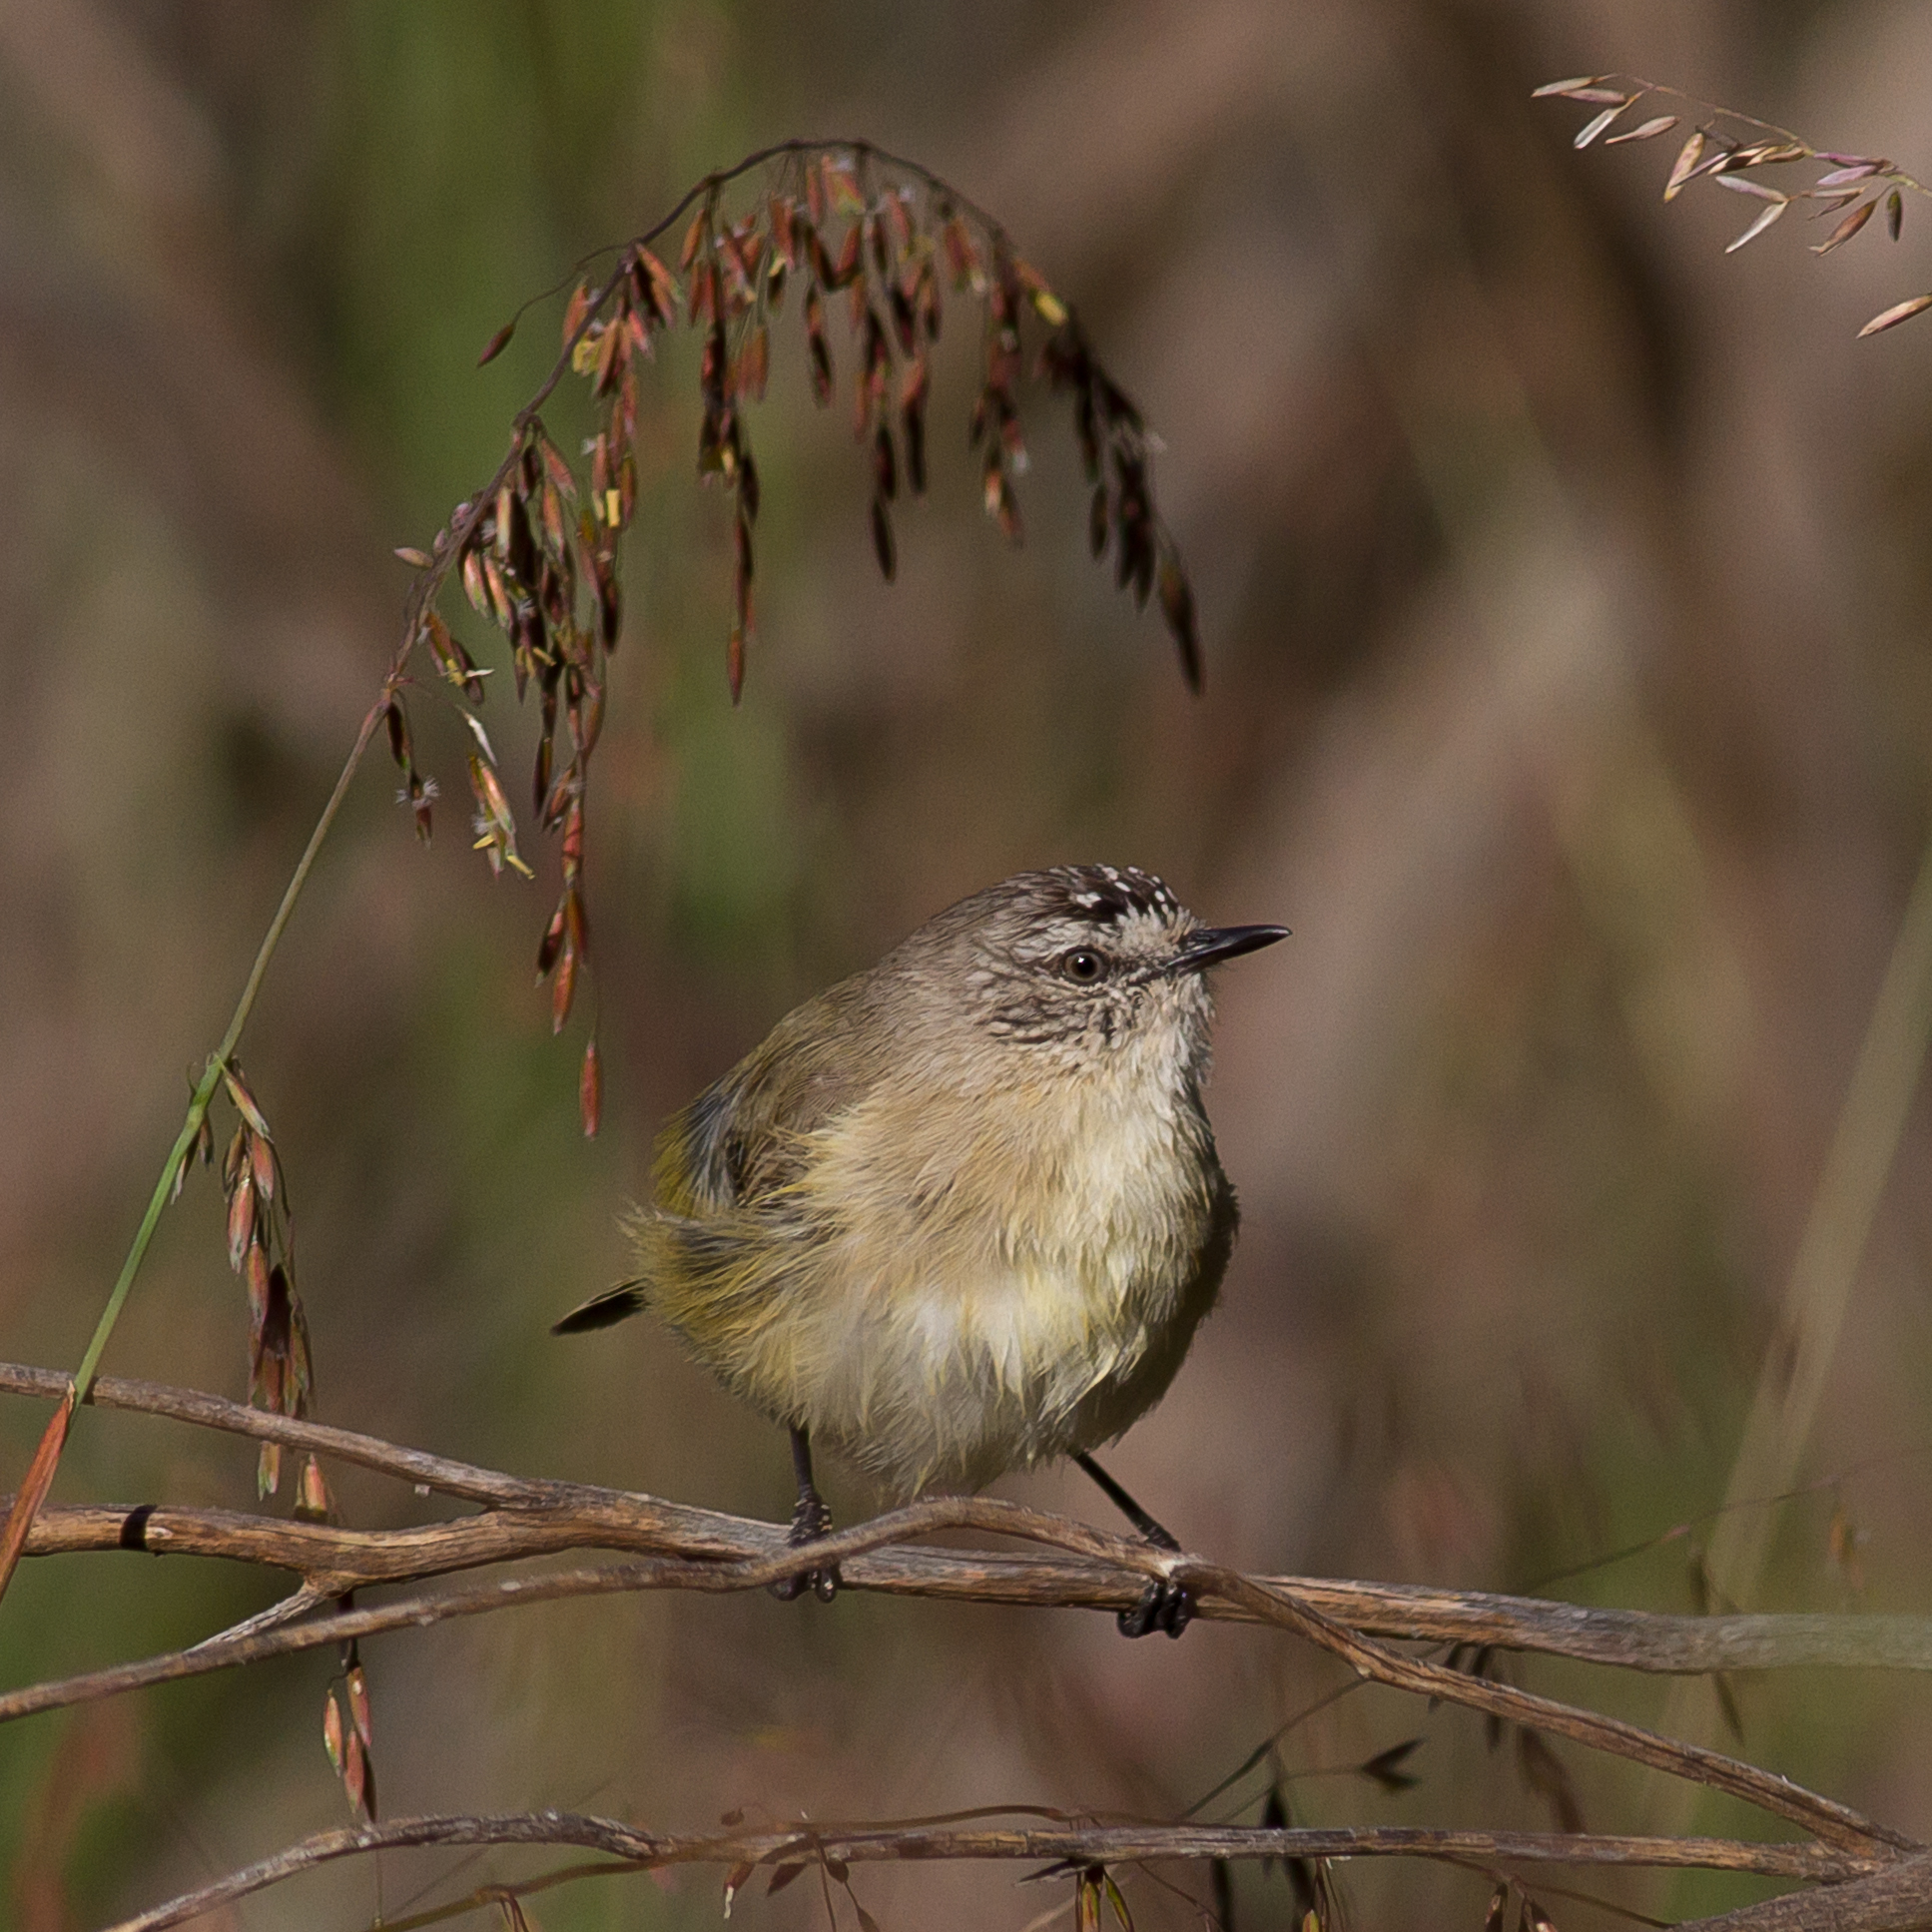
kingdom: Animalia
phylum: Chordata
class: Aves
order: Passeriformes
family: Acanthizidae
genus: Acanthiza
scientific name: Acanthiza chrysorrhoa
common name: Yellow-rumped thornbill
